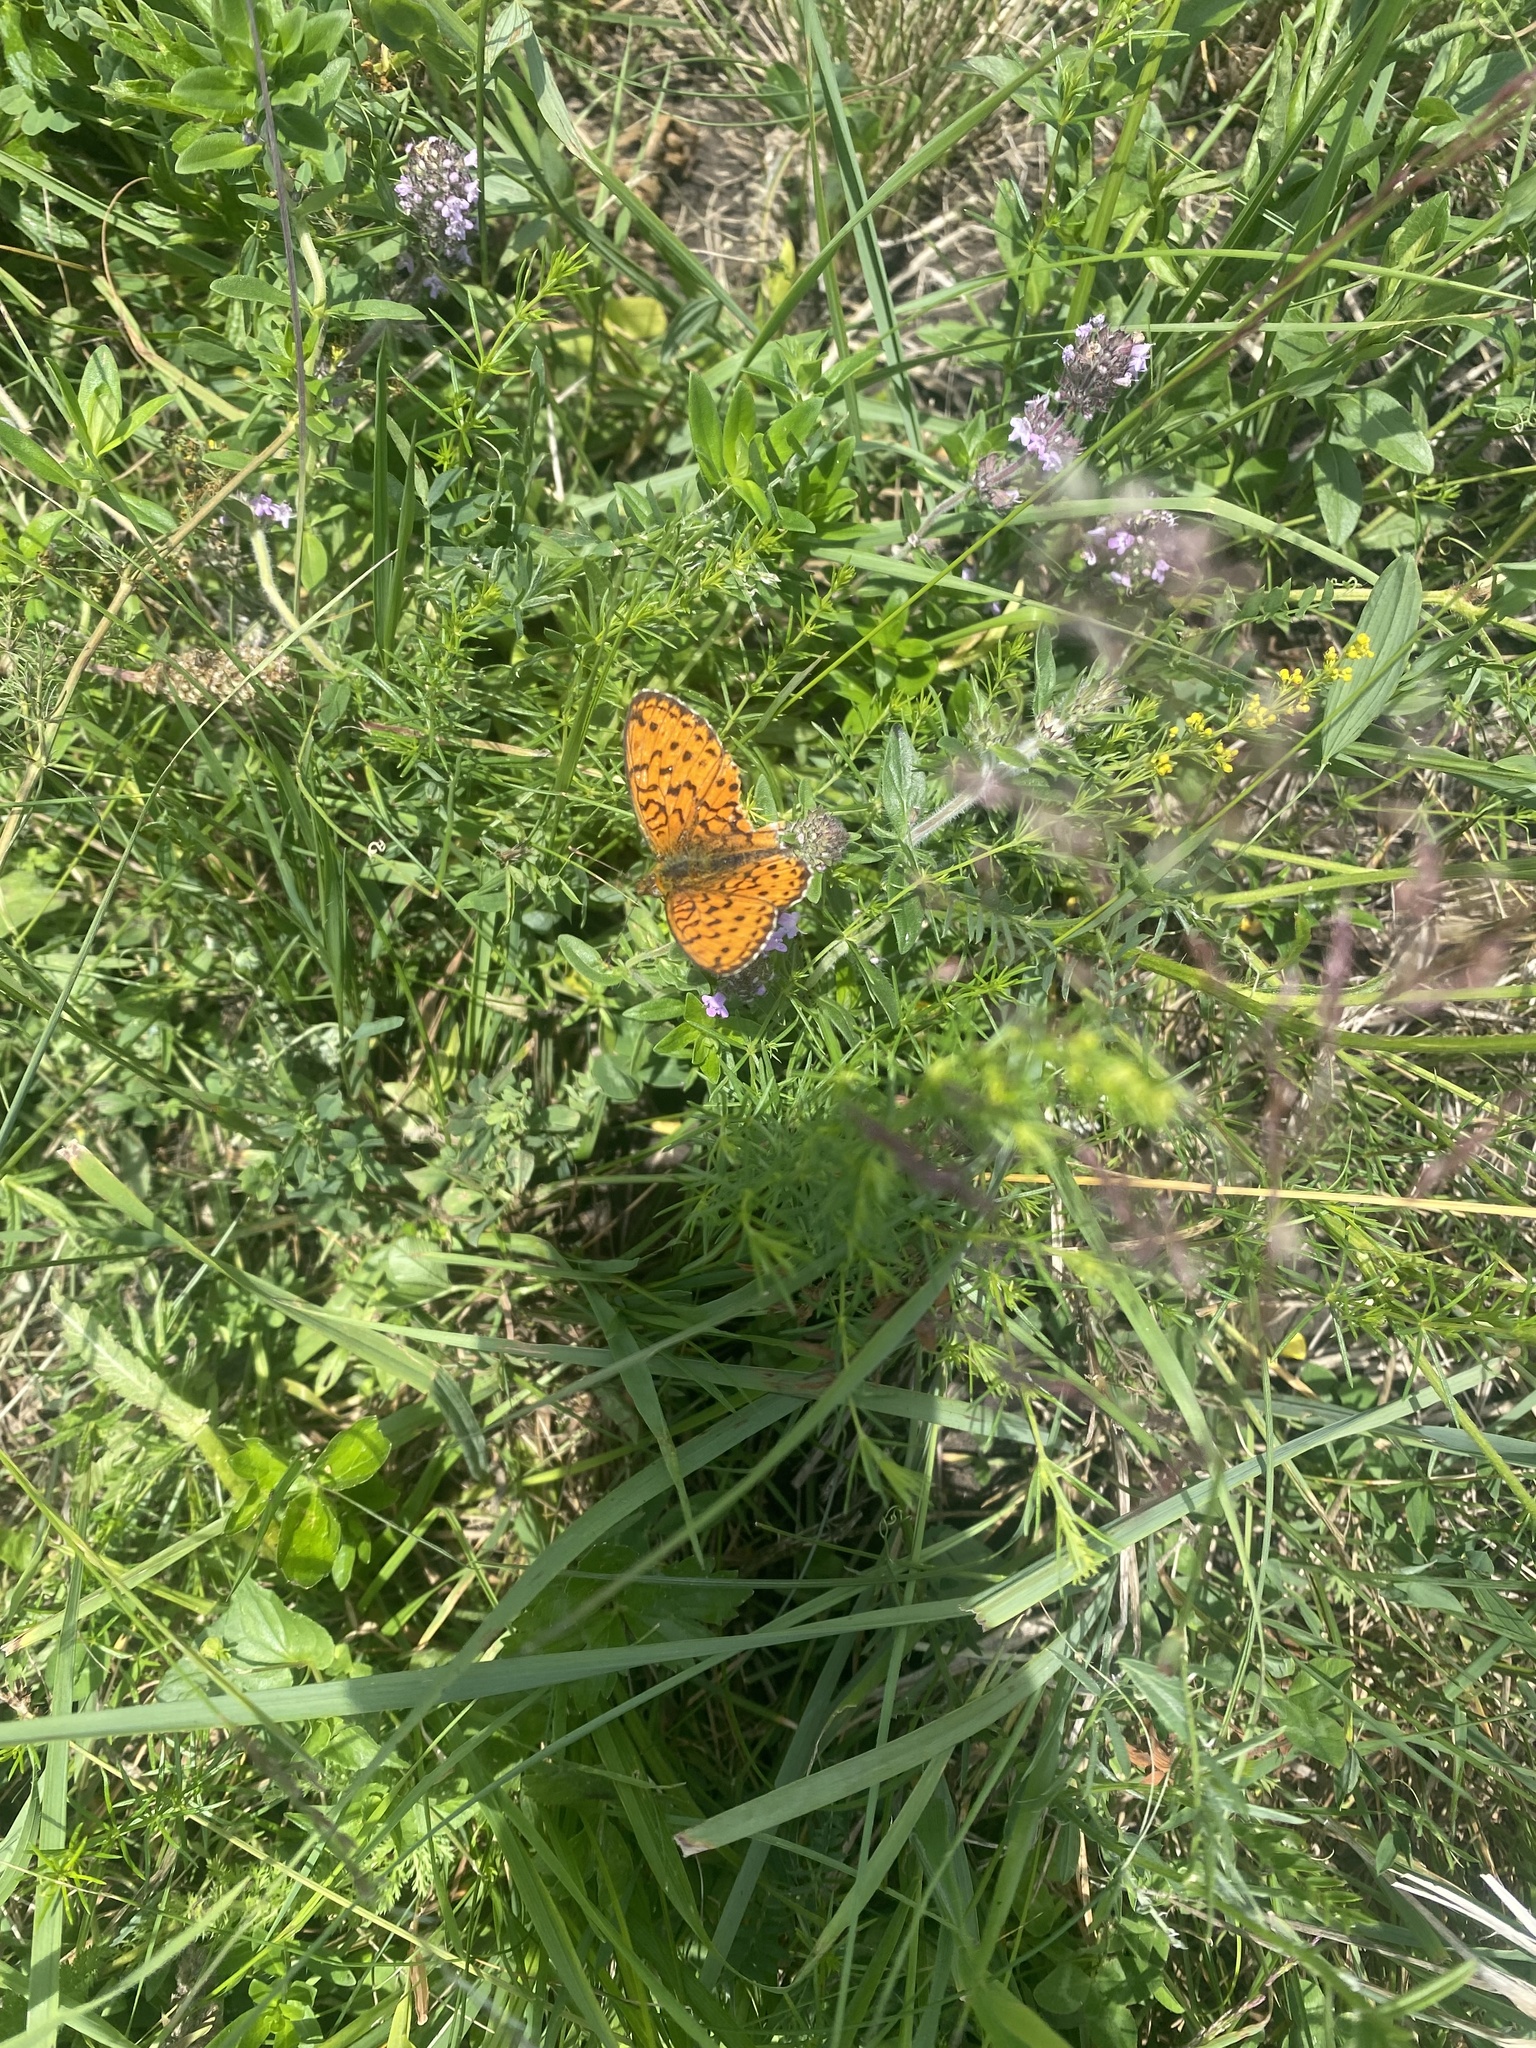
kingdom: Animalia
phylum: Arthropoda
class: Insecta
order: Lepidoptera
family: Nymphalidae
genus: Brenthis
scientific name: Brenthis ino
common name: Lesser marbled fritillary
